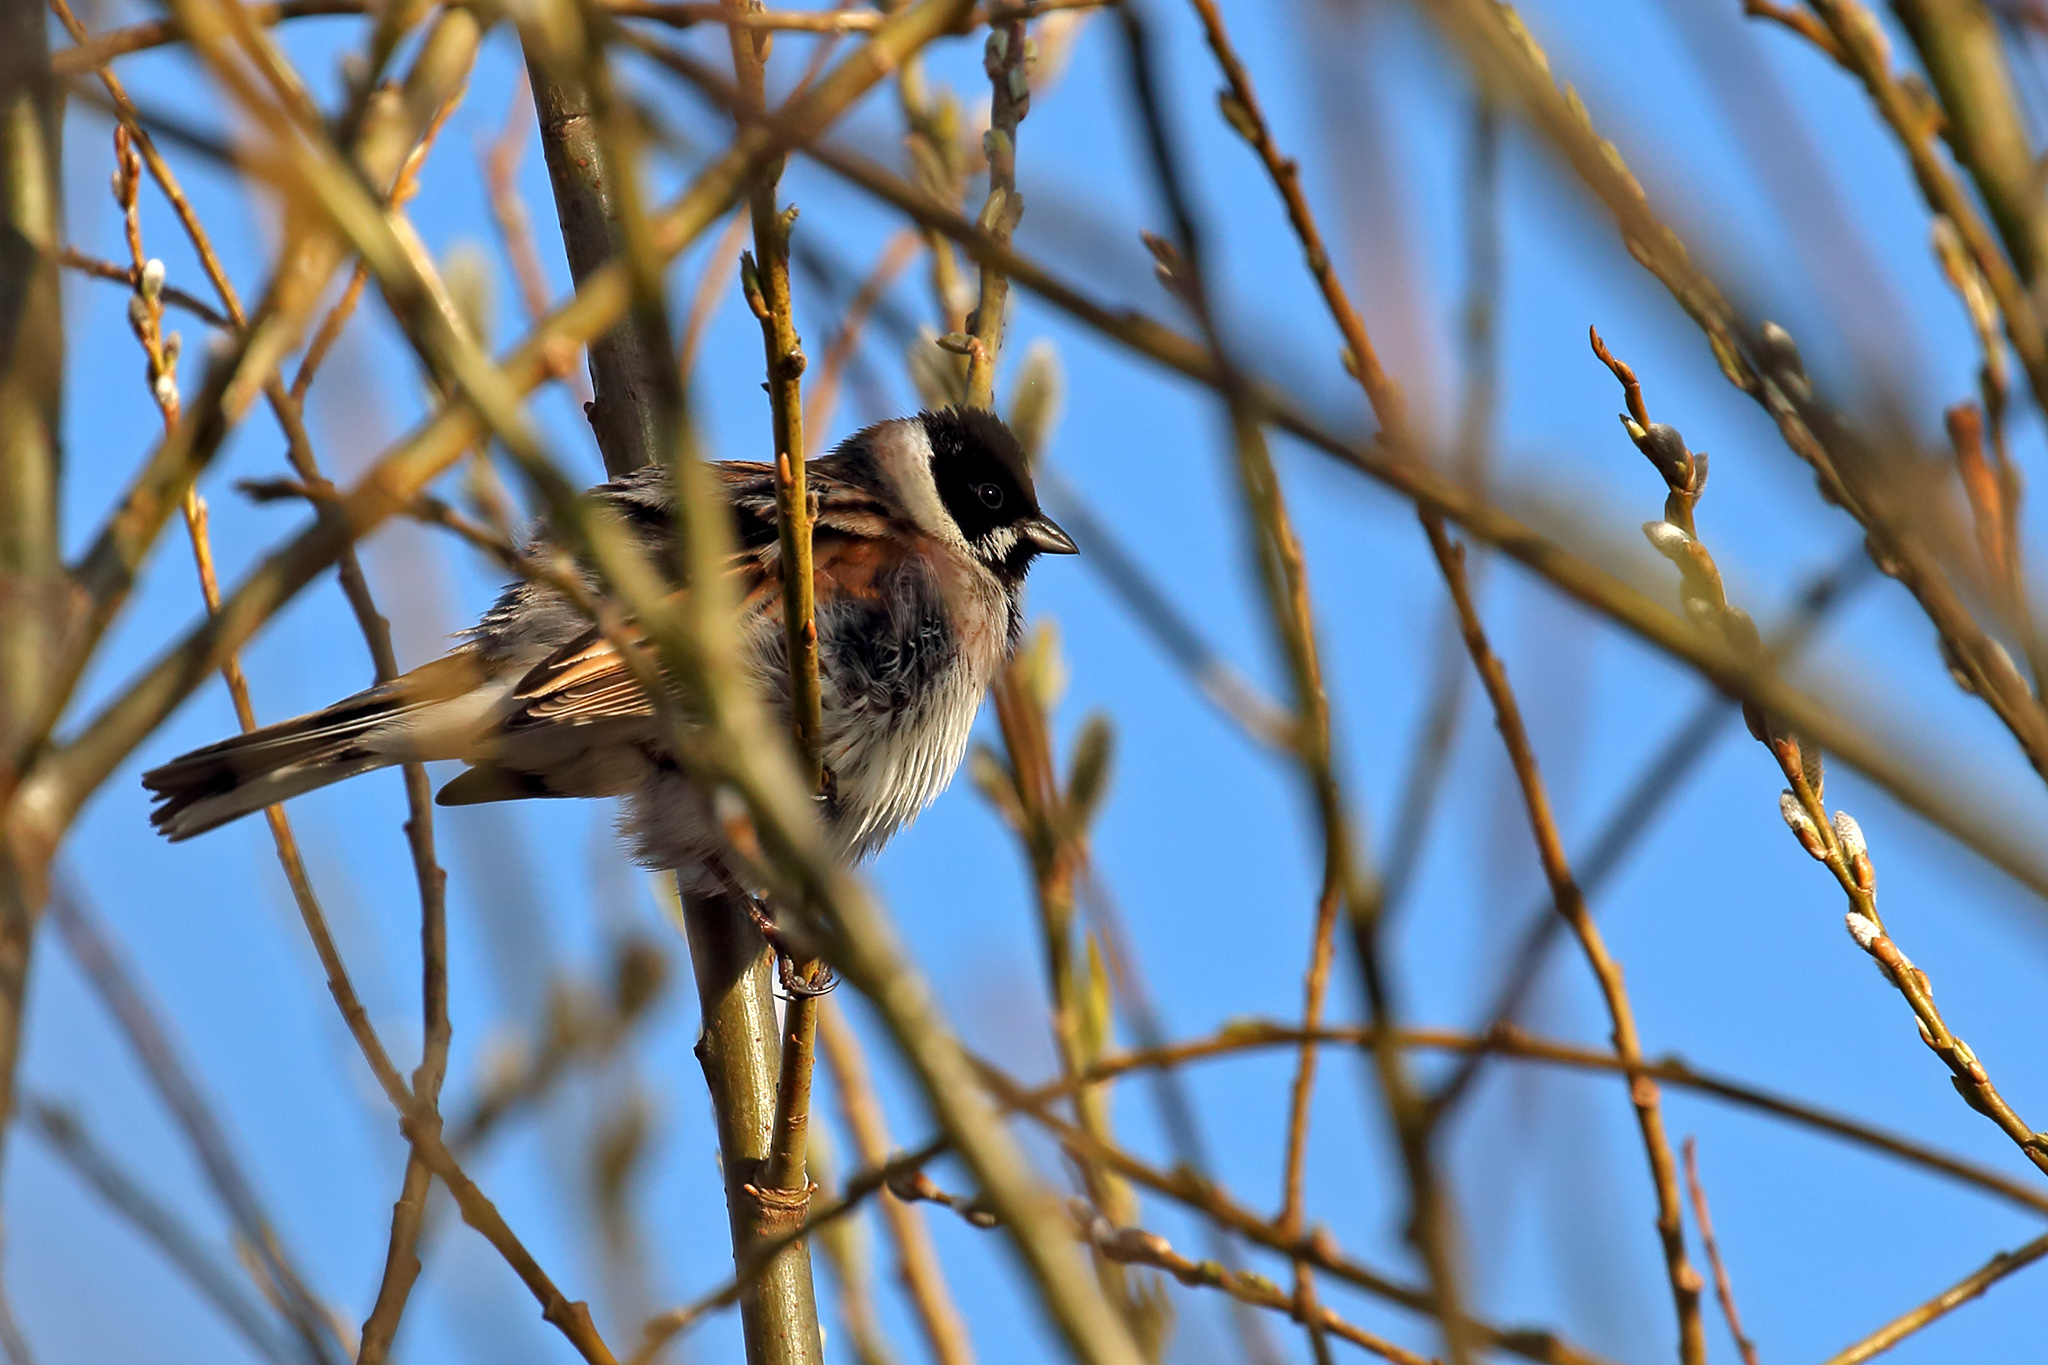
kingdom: Animalia
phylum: Chordata
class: Aves
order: Passeriformes
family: Emberizidae
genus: Emberiza
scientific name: Emberiza schoeniclus
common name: Reed bunting
